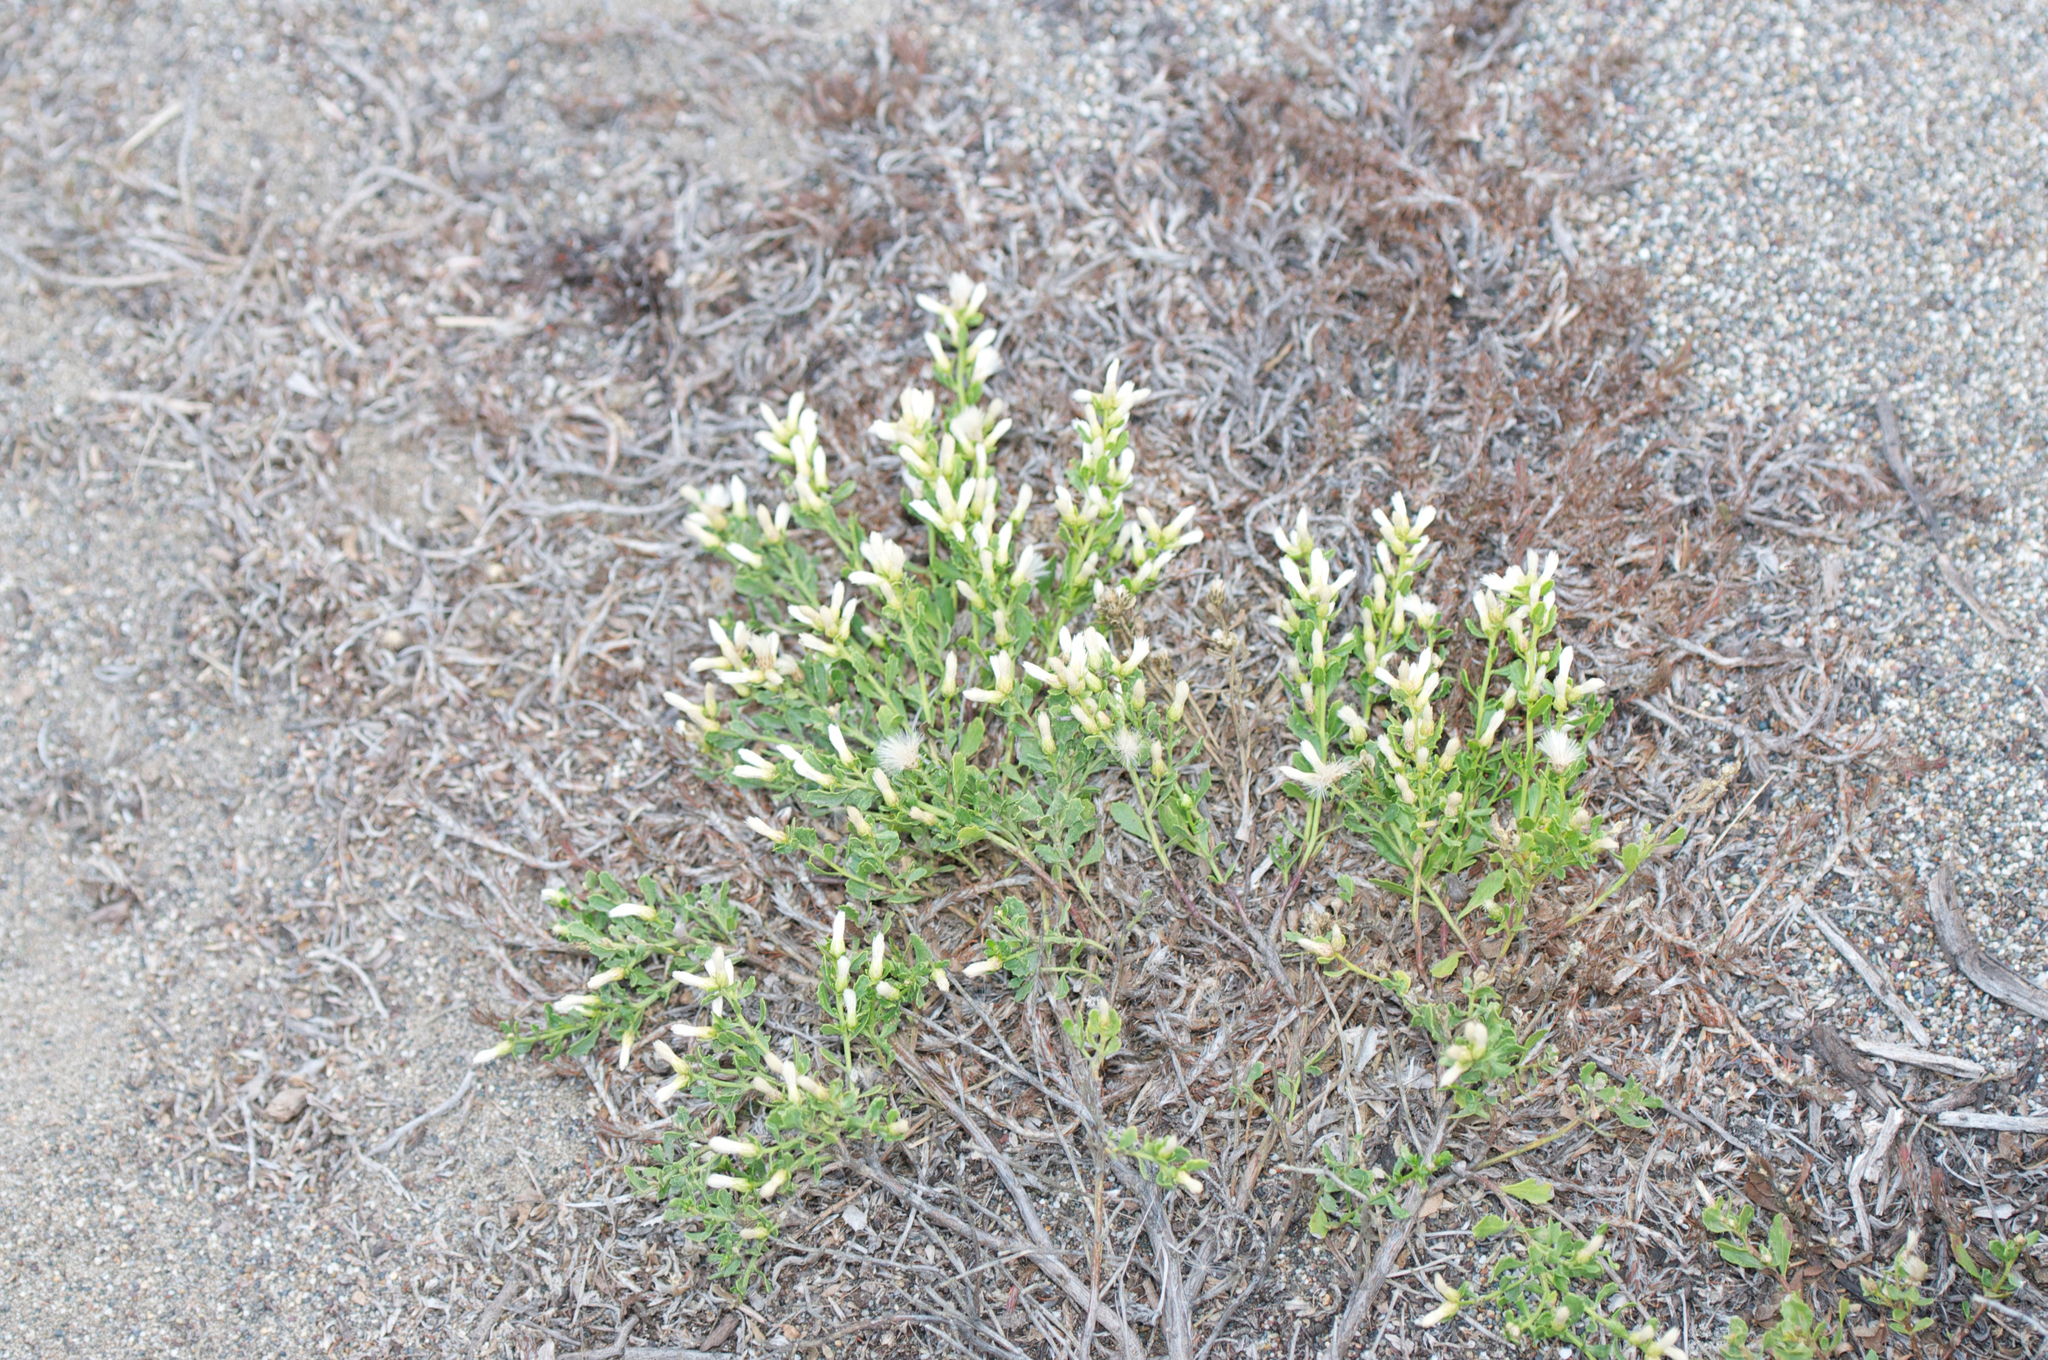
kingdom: Plantae
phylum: Tracheophyta
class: Magnoliopsida
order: Asterales
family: Asteraceae
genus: Baccharis
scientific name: Baccharis pilularis
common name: Coyotebrush
